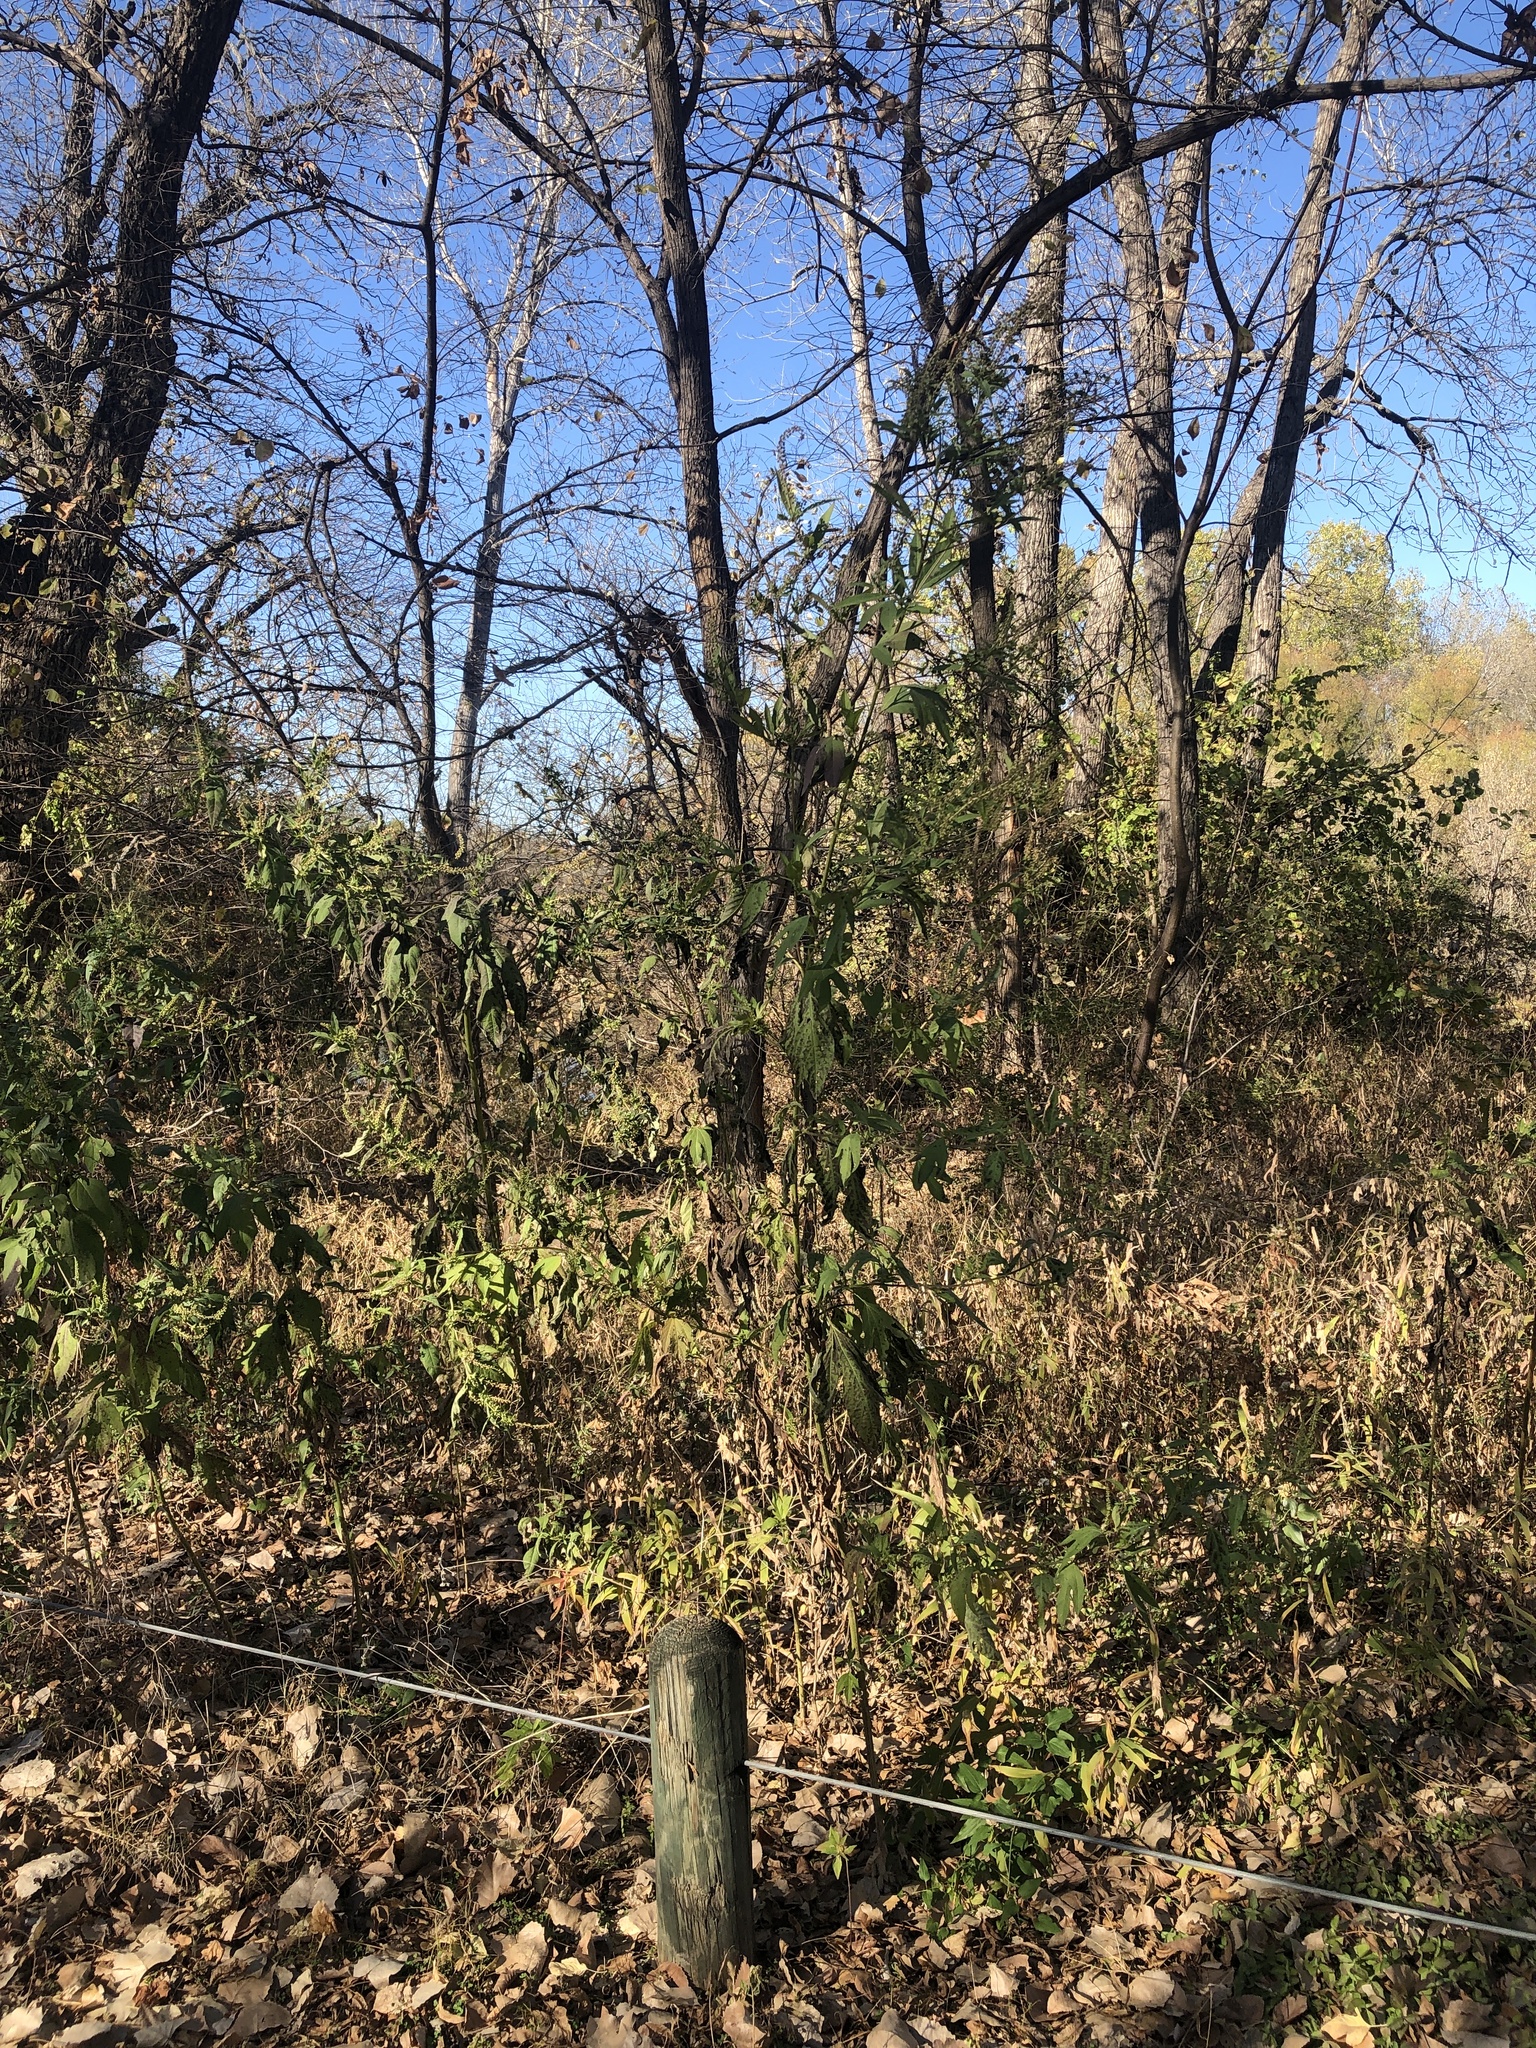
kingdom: Plantae
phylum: Tracheophyta
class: Magnoliopsida
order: Asterales
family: Asteraceae
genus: Ambrosia
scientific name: Ambrosia trifida
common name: Giant ragweed
